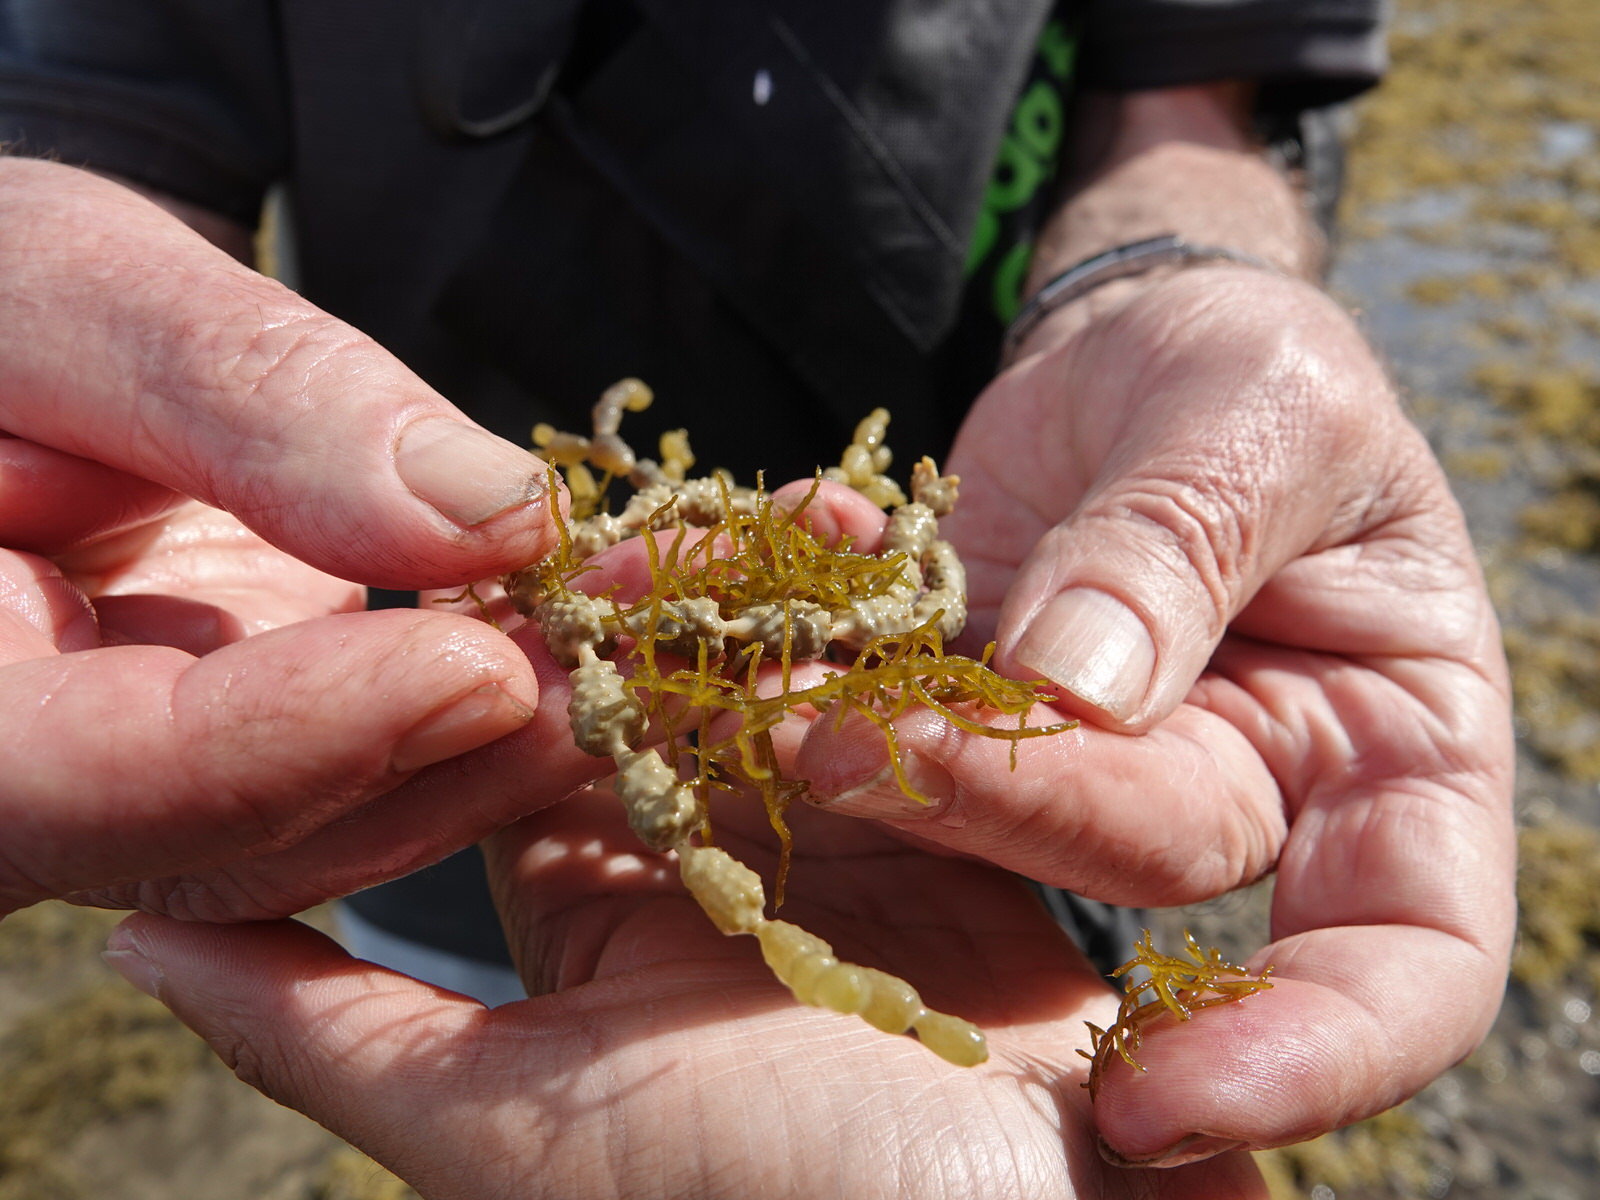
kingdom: Chromista
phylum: Ochrophyta
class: Phaeophyceae
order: Fucales
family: Notheiaceae
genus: Notheia
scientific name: Notheia anomala
